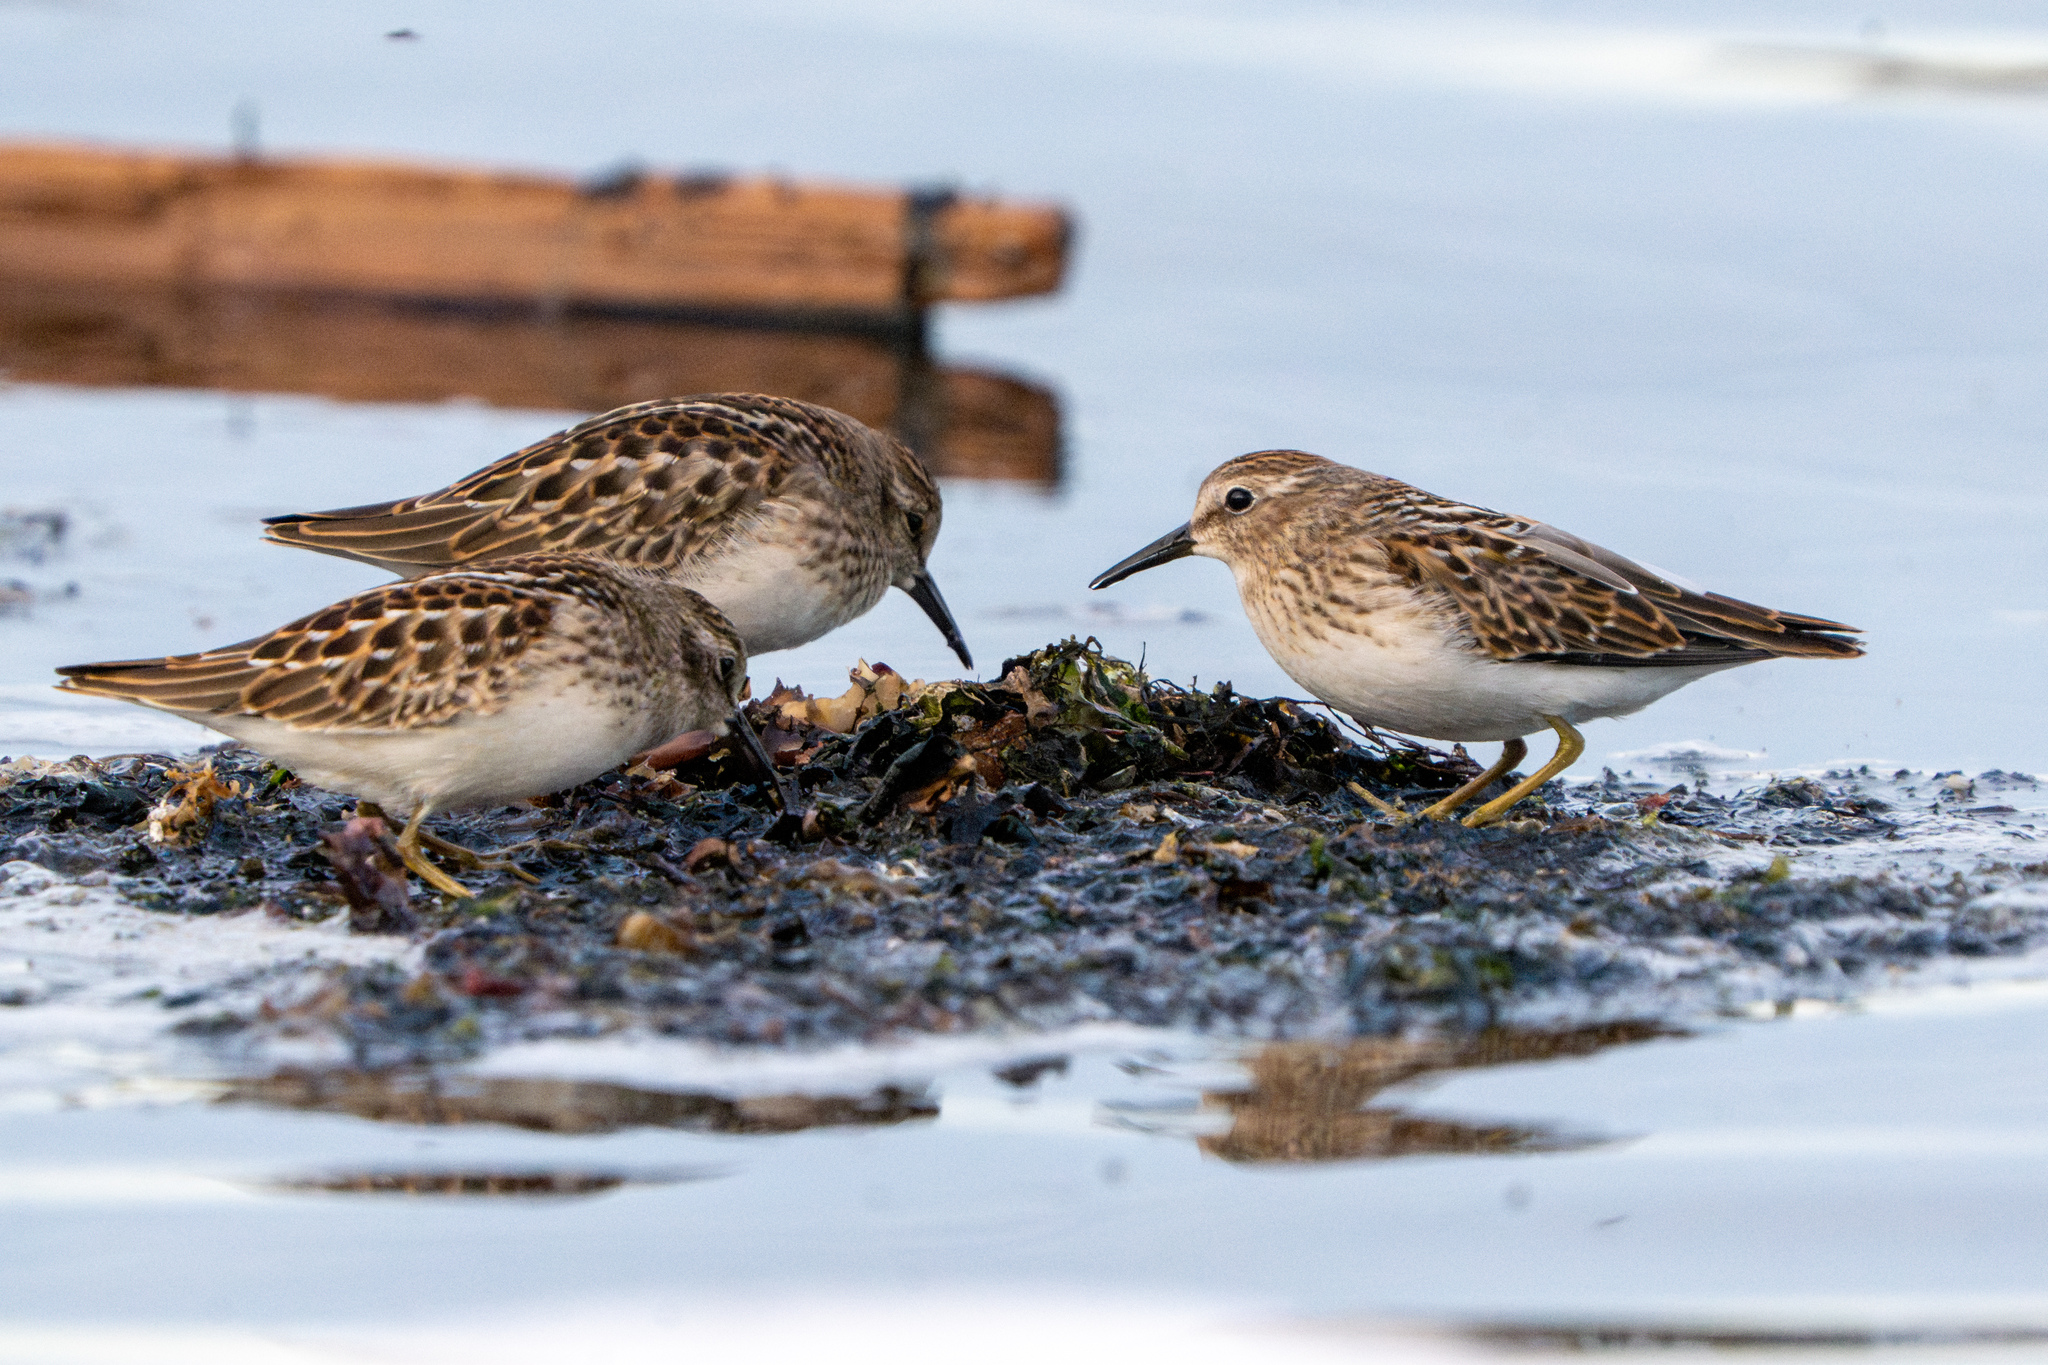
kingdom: Animalia
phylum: Chordata
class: Aves
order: Charadriiformes
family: Scolopacidae
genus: Calidris
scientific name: Calidris minutilla
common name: Least sandpiper
